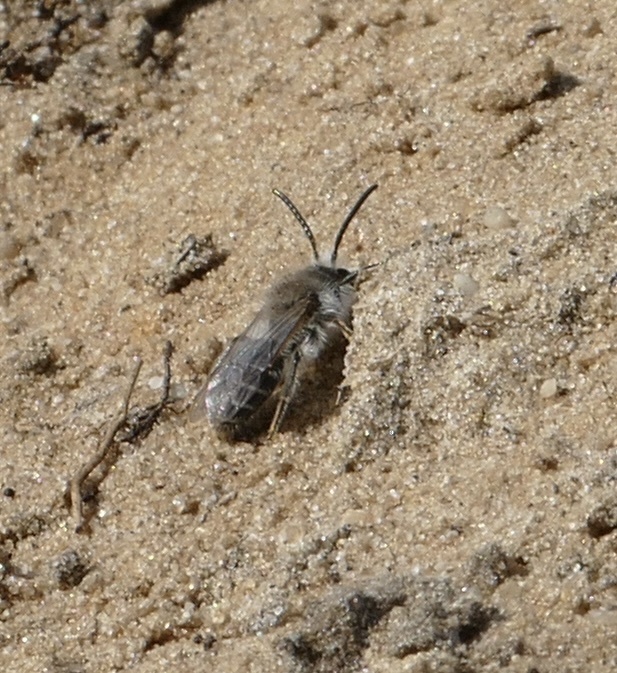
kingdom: Animalia
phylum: Arthropoda
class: Insecta
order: Hymenoptera
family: Colletidae
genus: Colletes
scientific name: Colletes cunicularius
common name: Early colletes
